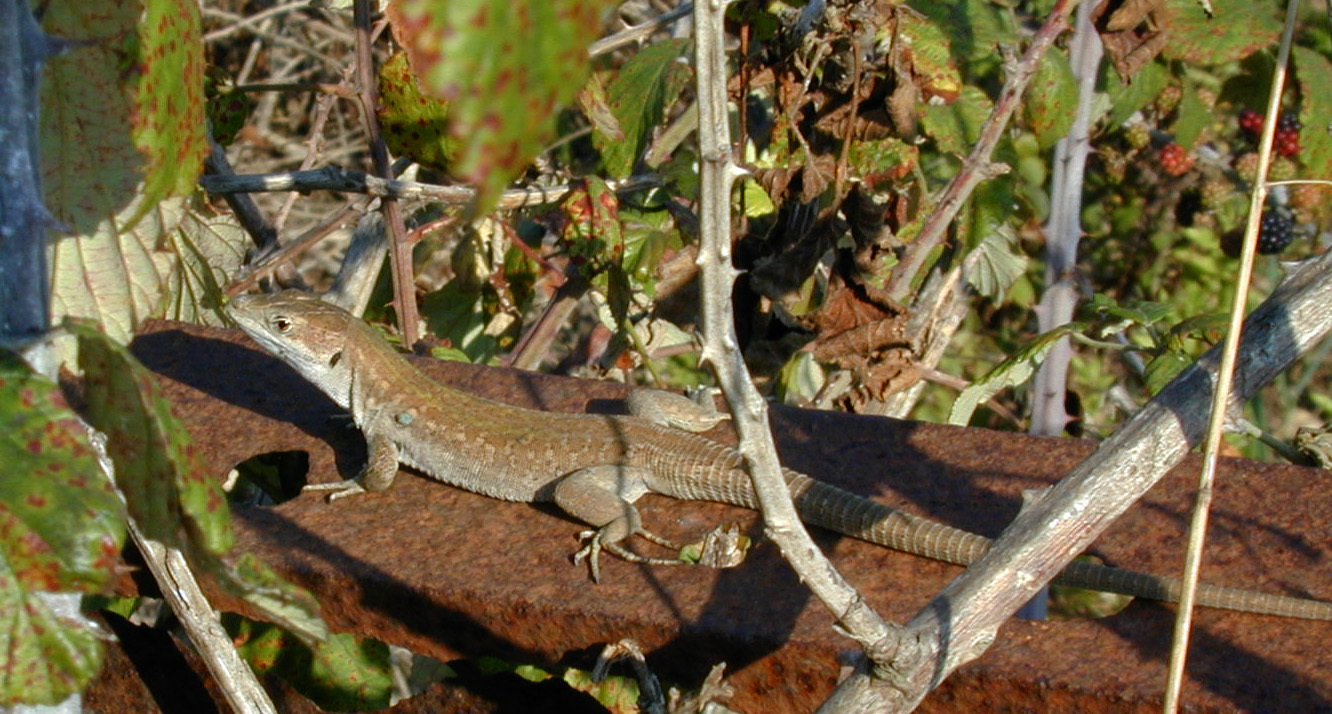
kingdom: Animalia
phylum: Chordata
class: Squamata
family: Lacertidae
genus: Podarcis
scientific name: Podarcis siculus
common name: Italian wall lizard
